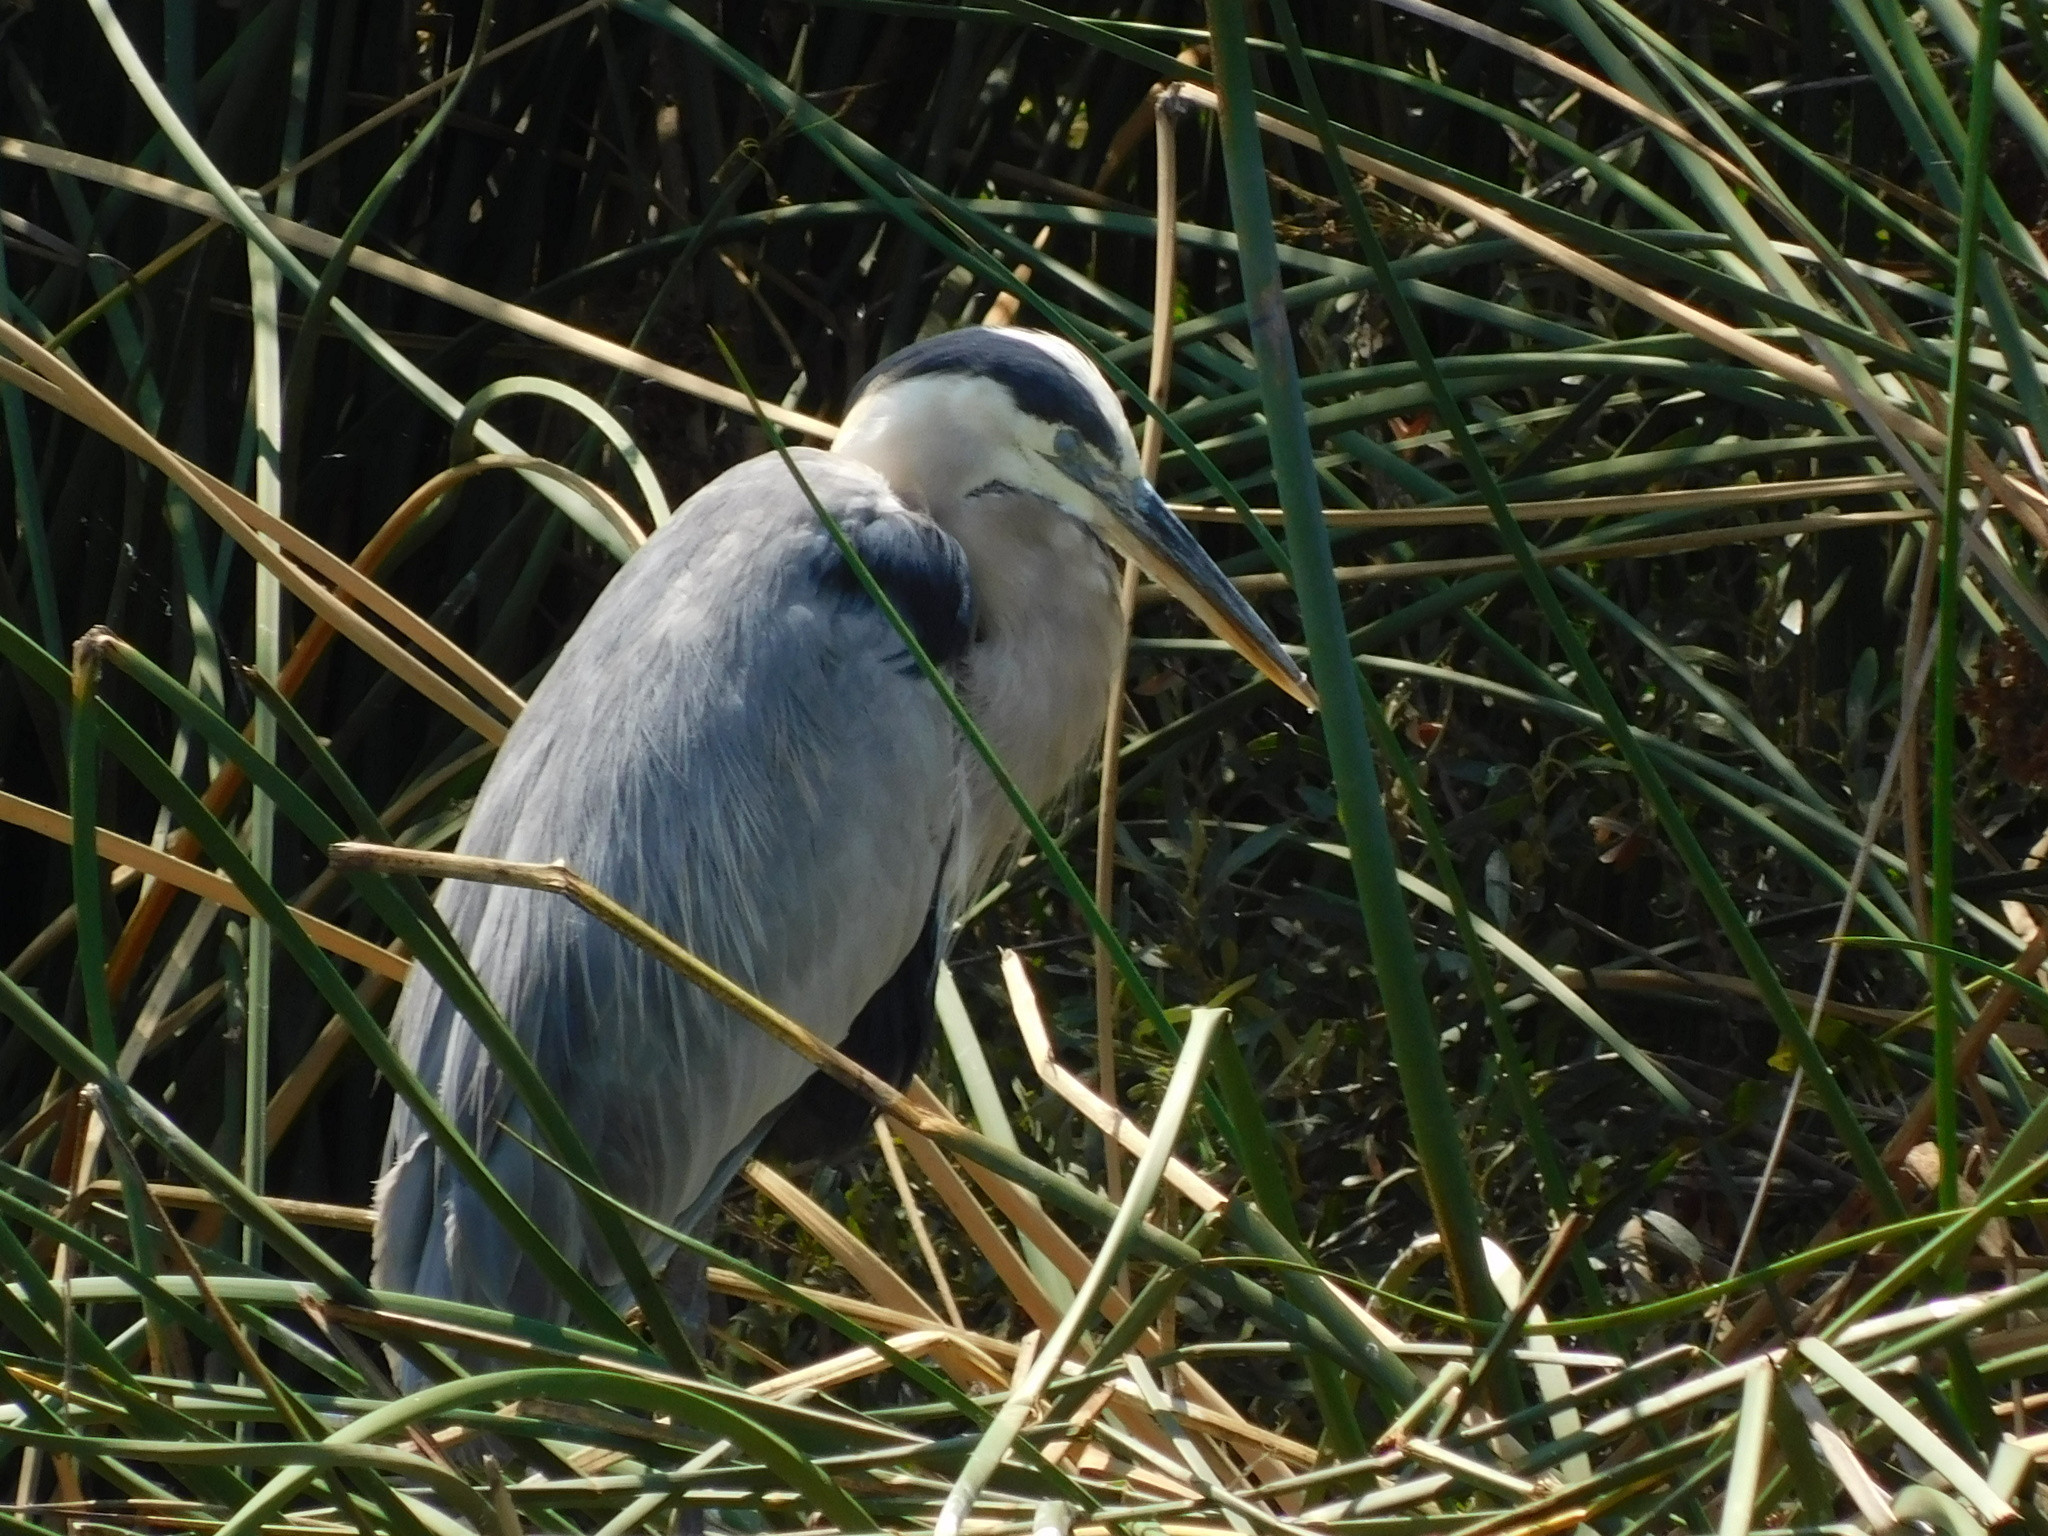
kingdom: Animalia
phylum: Chordata
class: Aves
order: Pelecaniformes
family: Ardeidae
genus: Ardea
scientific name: Ardea herodias
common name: Great blue heron
